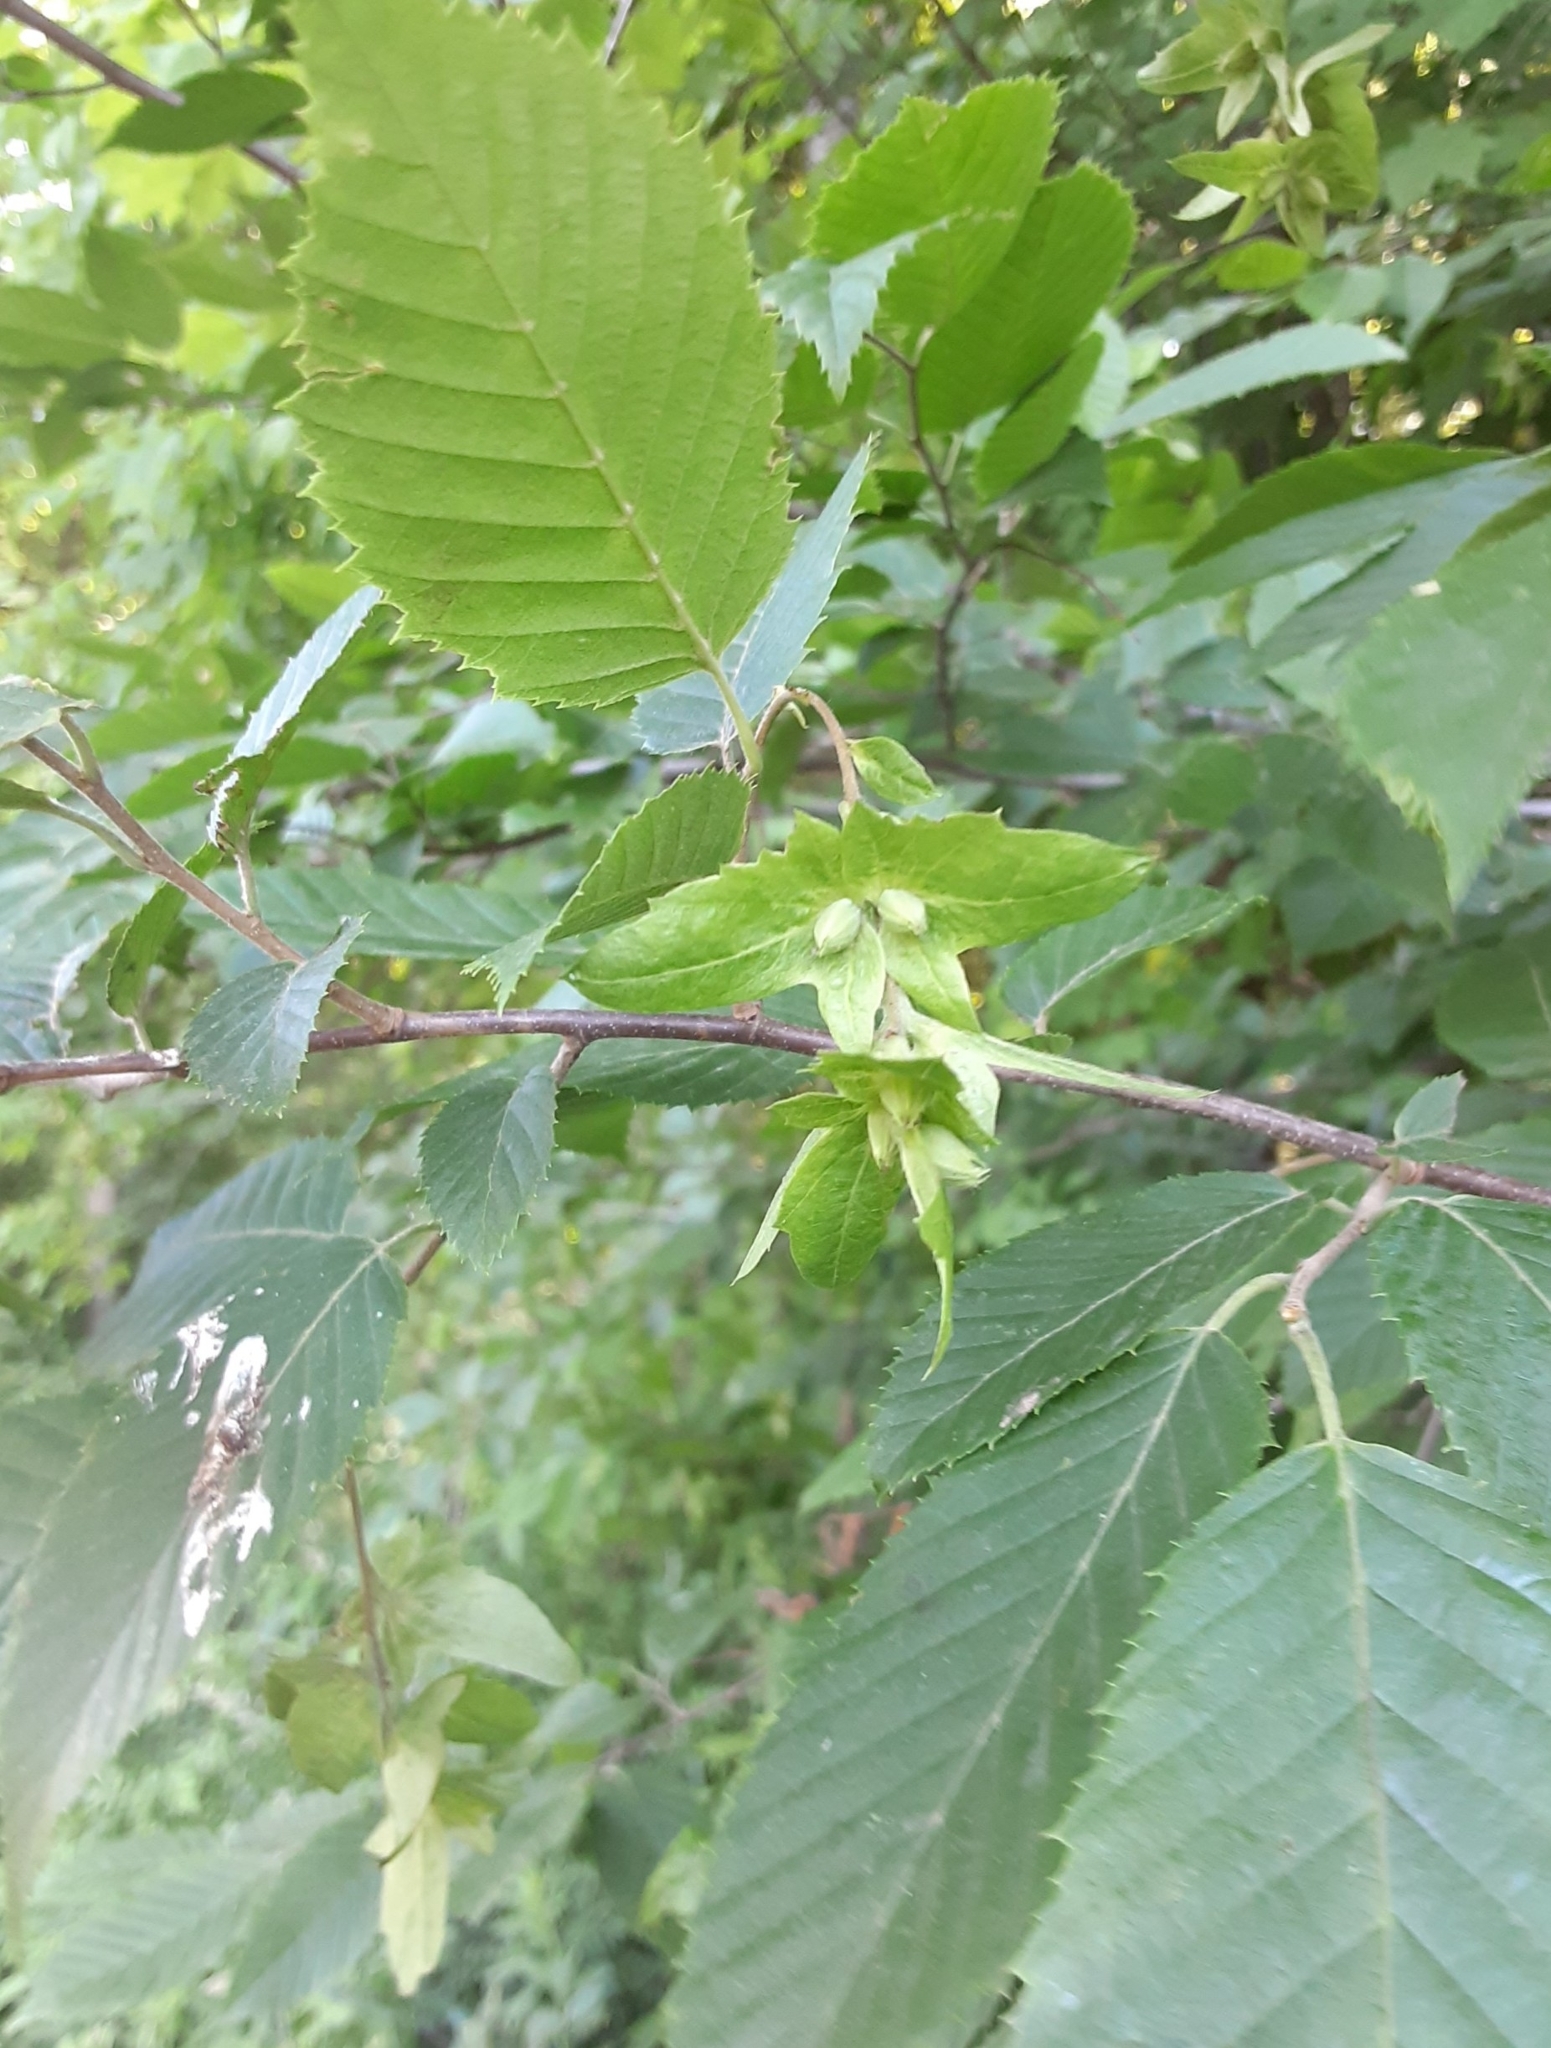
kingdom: Plantae
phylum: Tracheophyta
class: Magnoliopsida
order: Fagales
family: Betulaceae
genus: Carpinus
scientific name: Carpinus caroliniana
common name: American hornbeam
